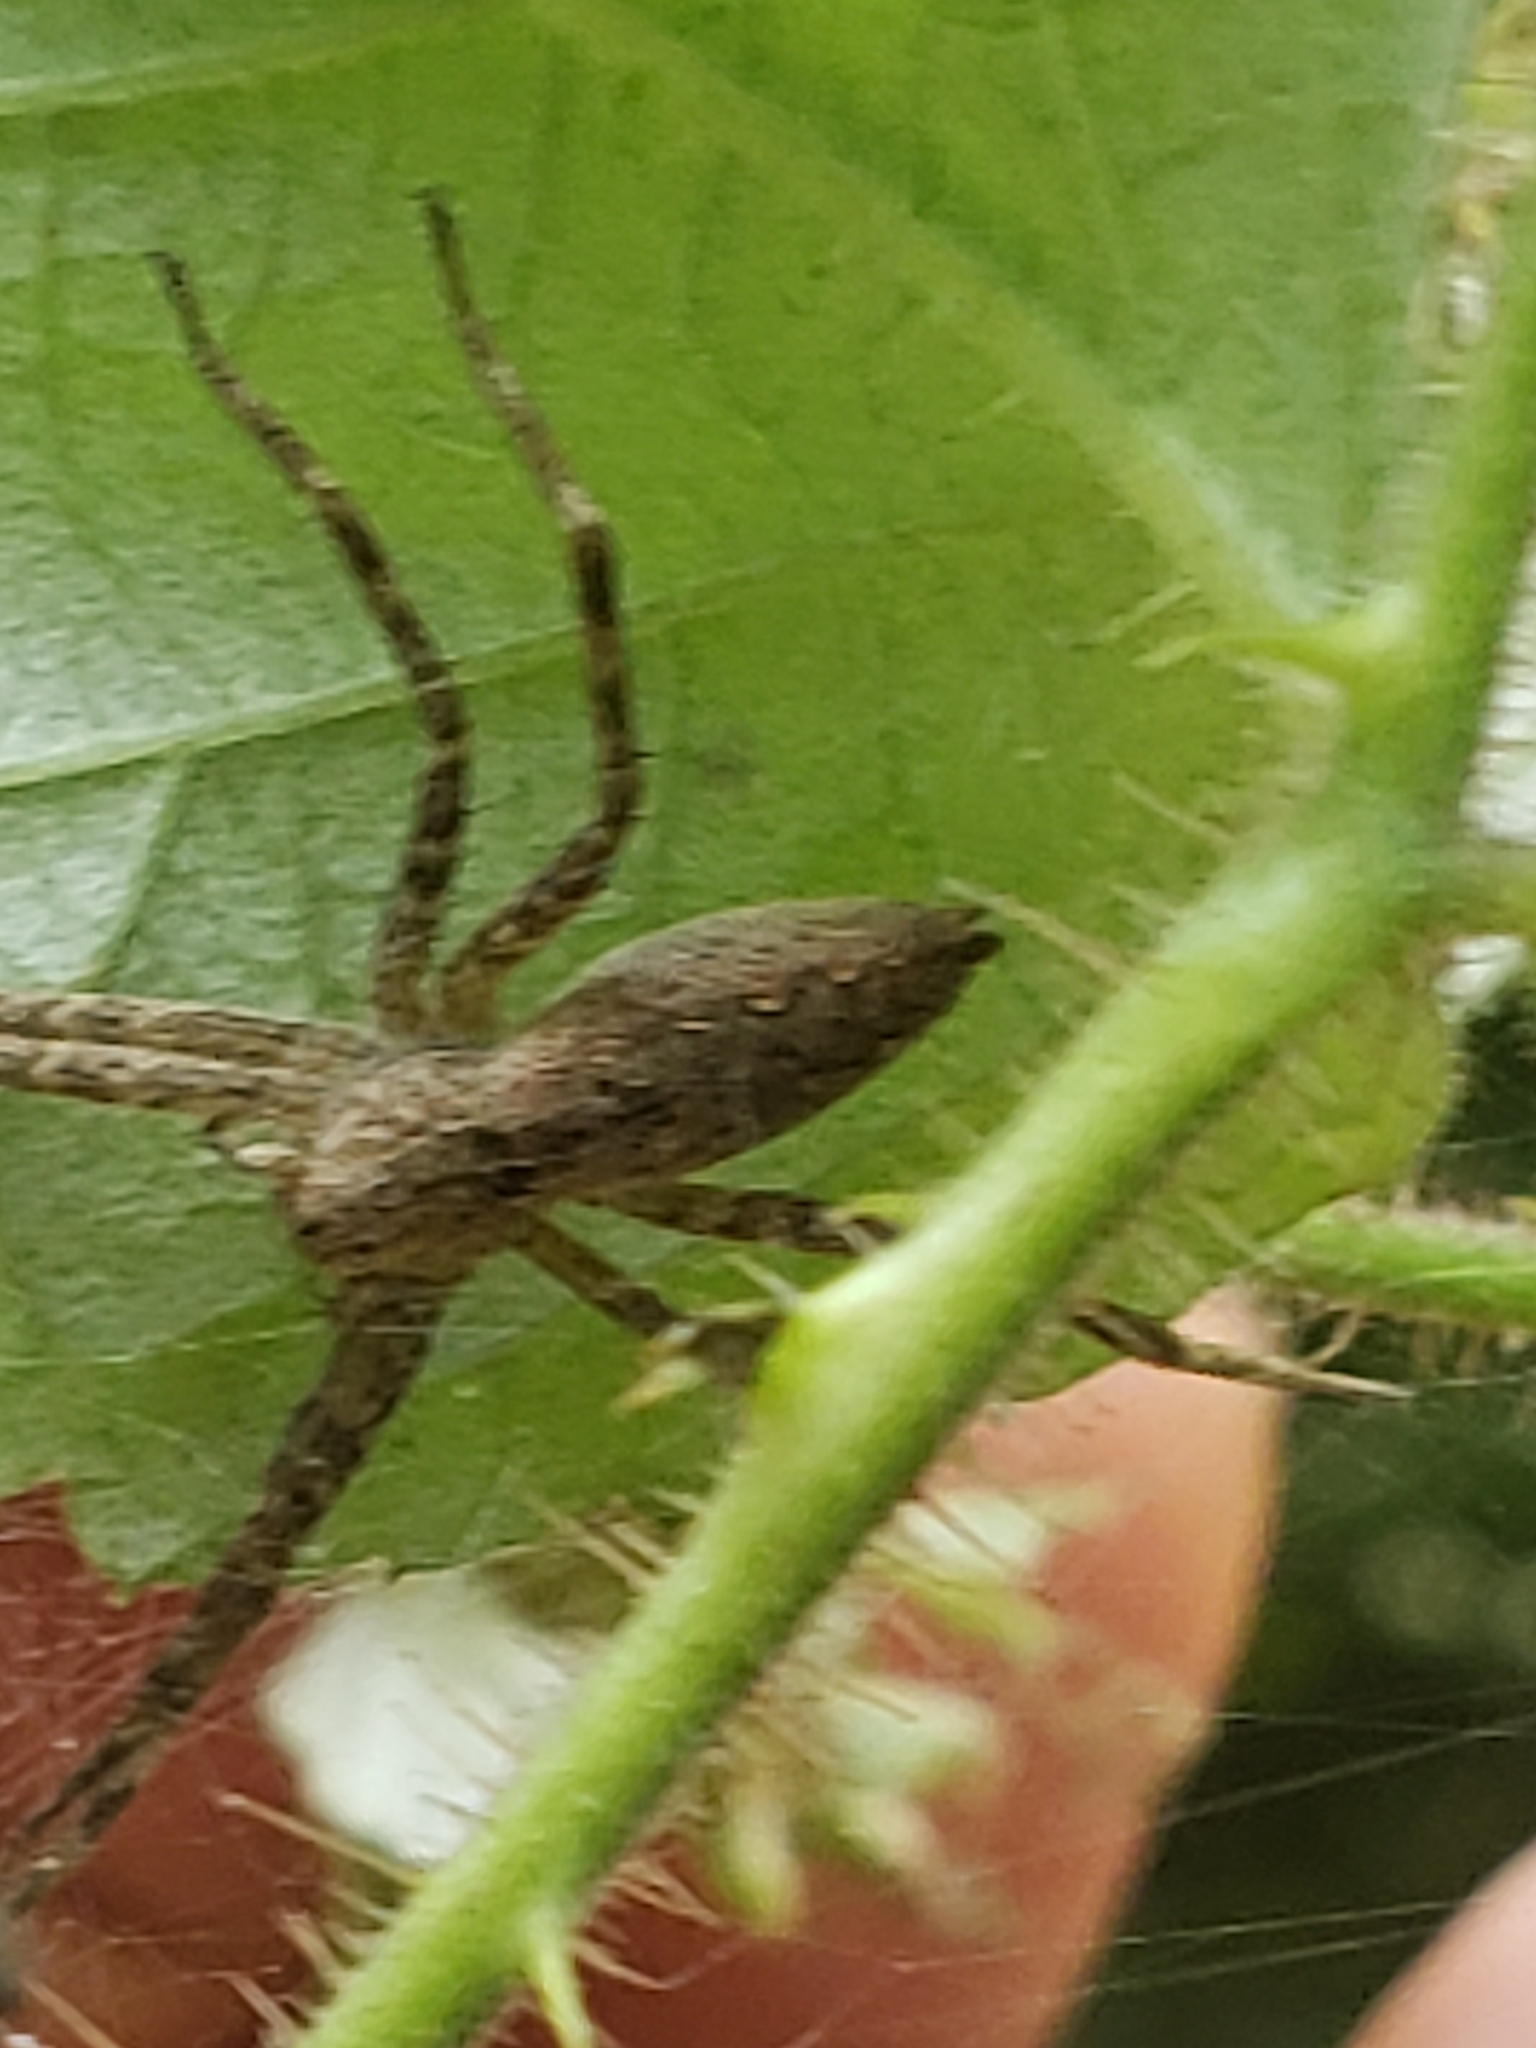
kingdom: Animalia
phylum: Arthropoda
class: Arachnida
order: Araneae
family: Pisauridae
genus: Pisaurina
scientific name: Pisaurina mira
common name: American nursery web spider
